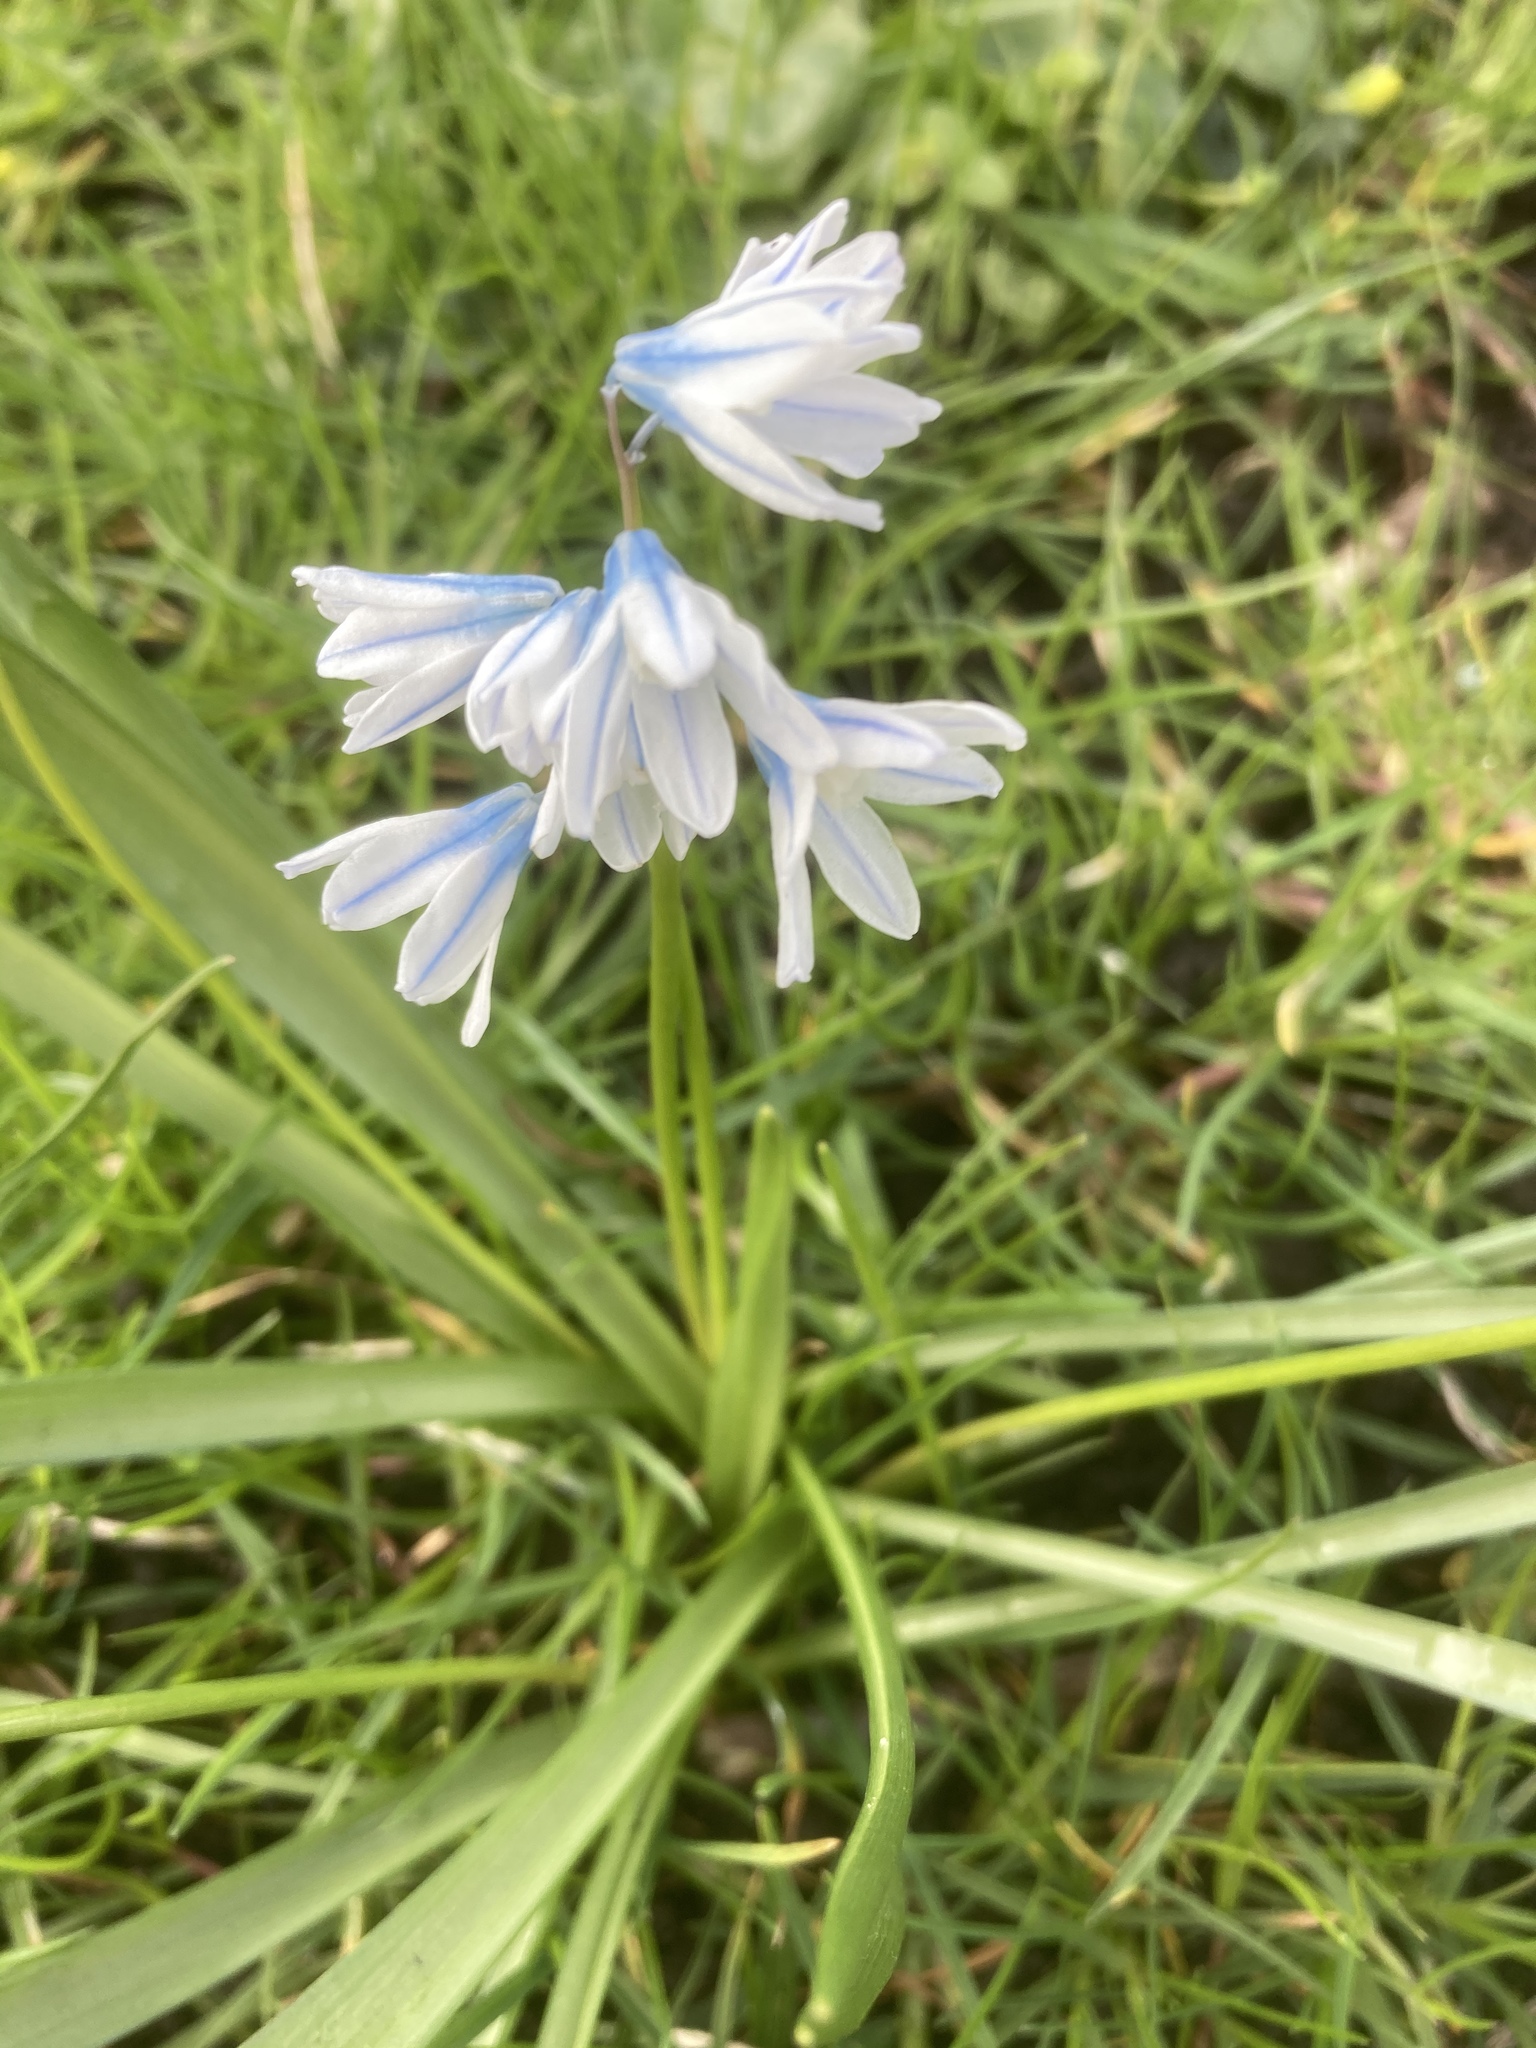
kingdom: Plantae
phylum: Tracheophyta
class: Liliopsida
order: Asparagales
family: Asparagaceae
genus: Puschkinia
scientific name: Puschkinia scilloides
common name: Striped squill
